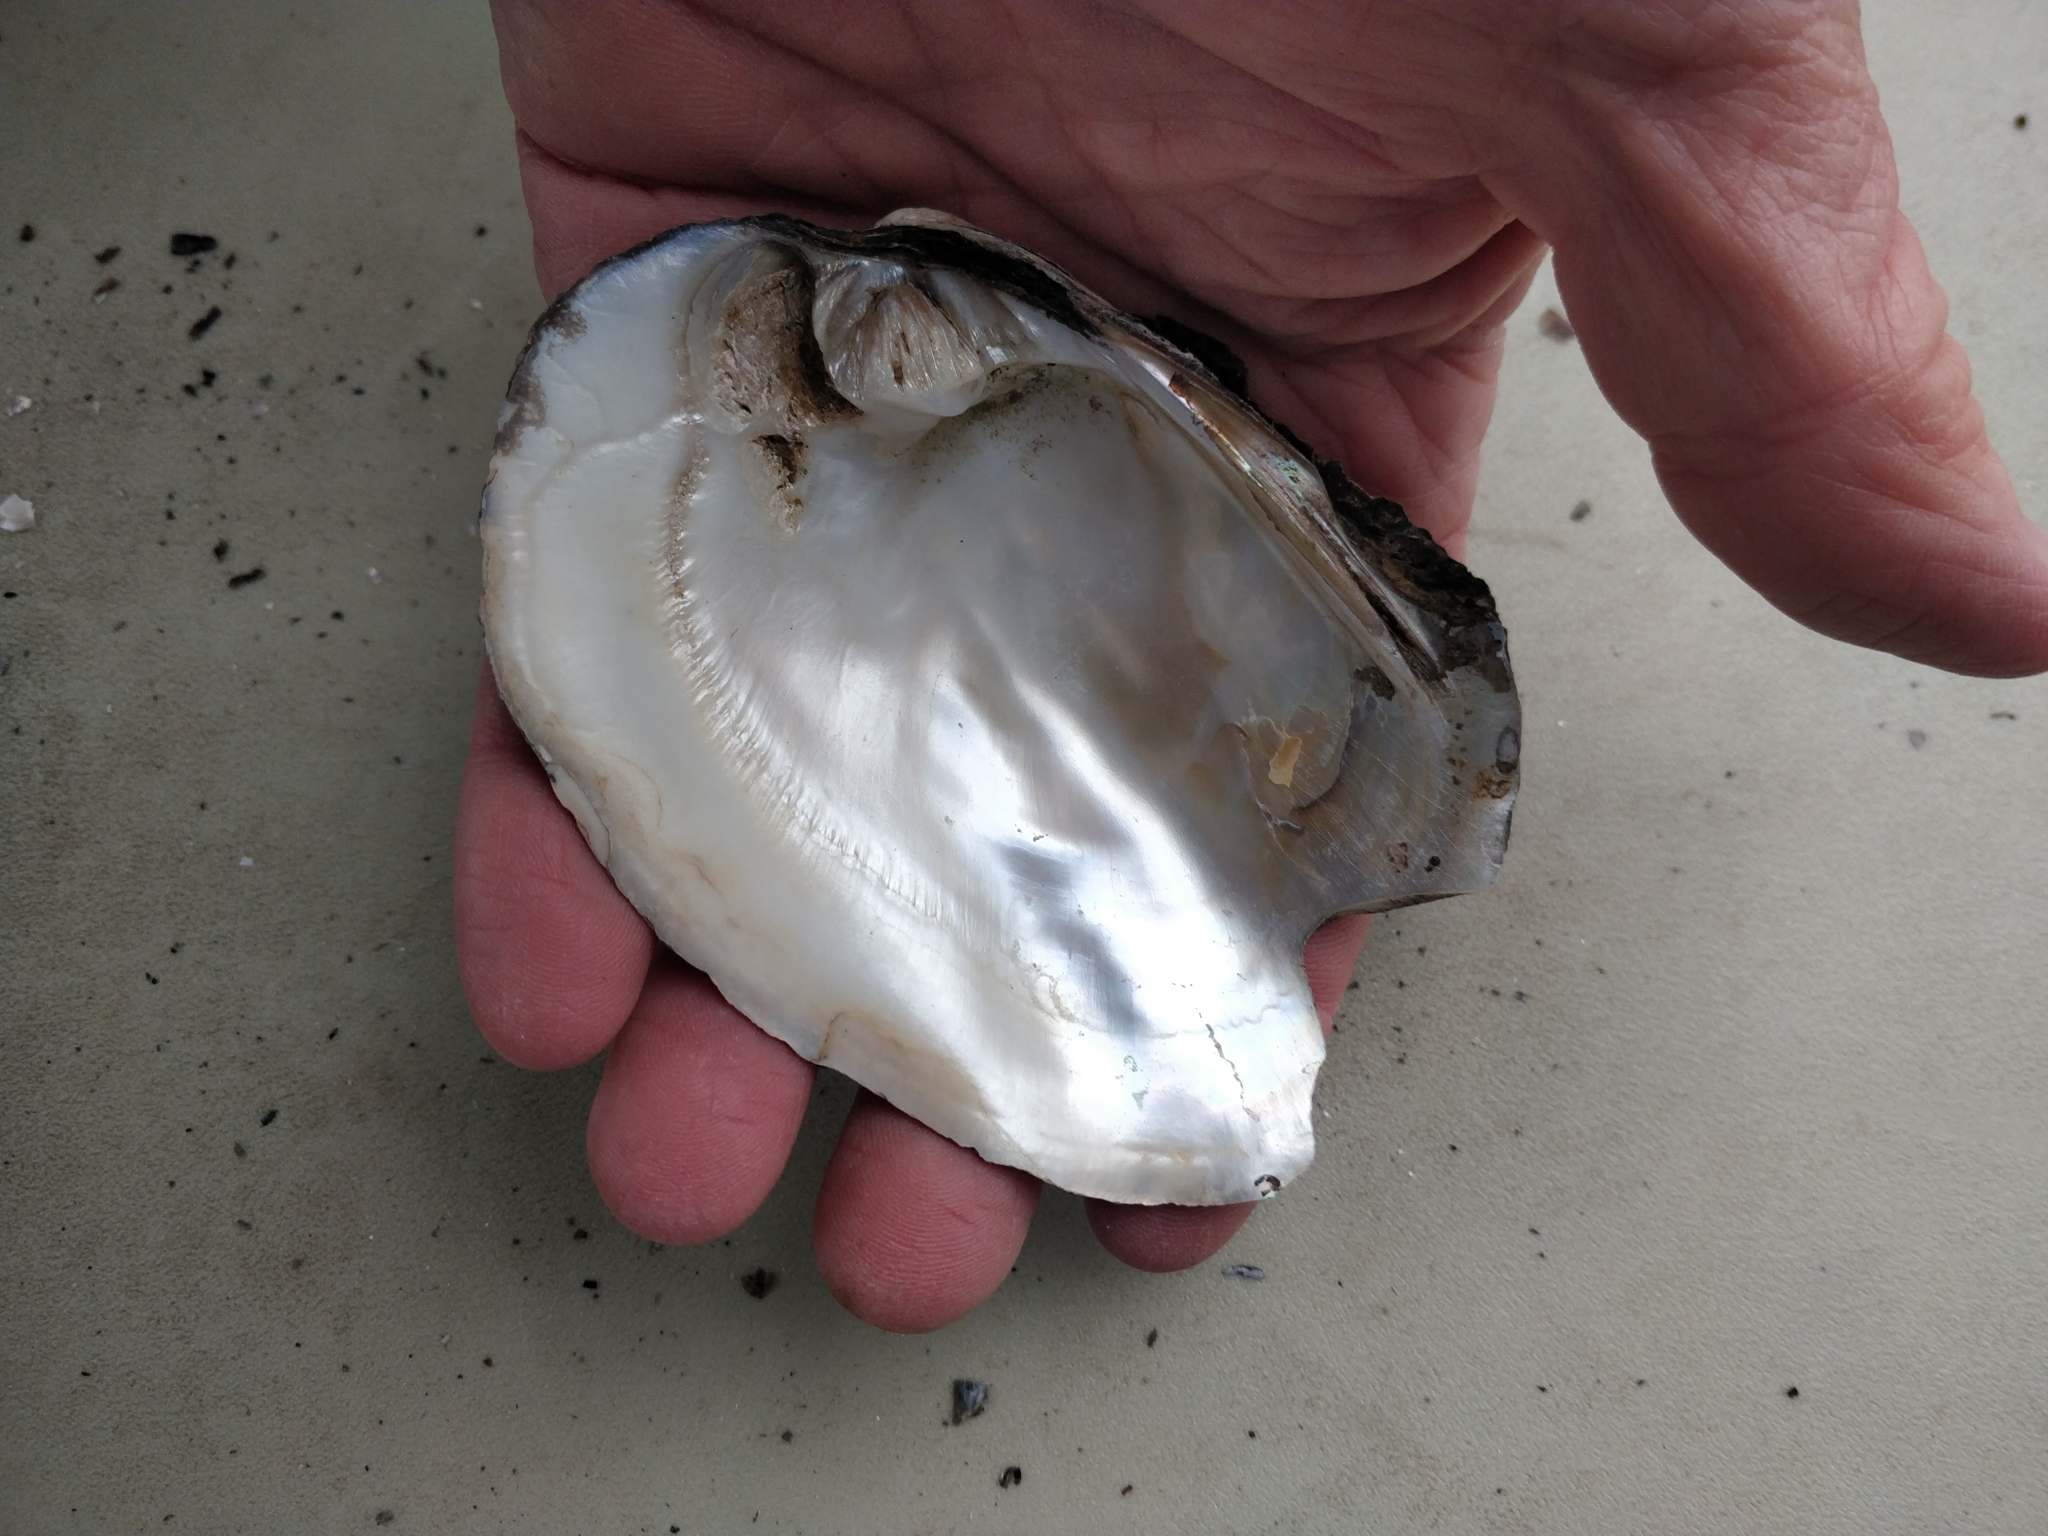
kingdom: Animalia
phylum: Mollusca
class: Bivalvia
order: Unionida
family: Unionidae
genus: Amblema
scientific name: Amblema plicata
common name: Threeridge
